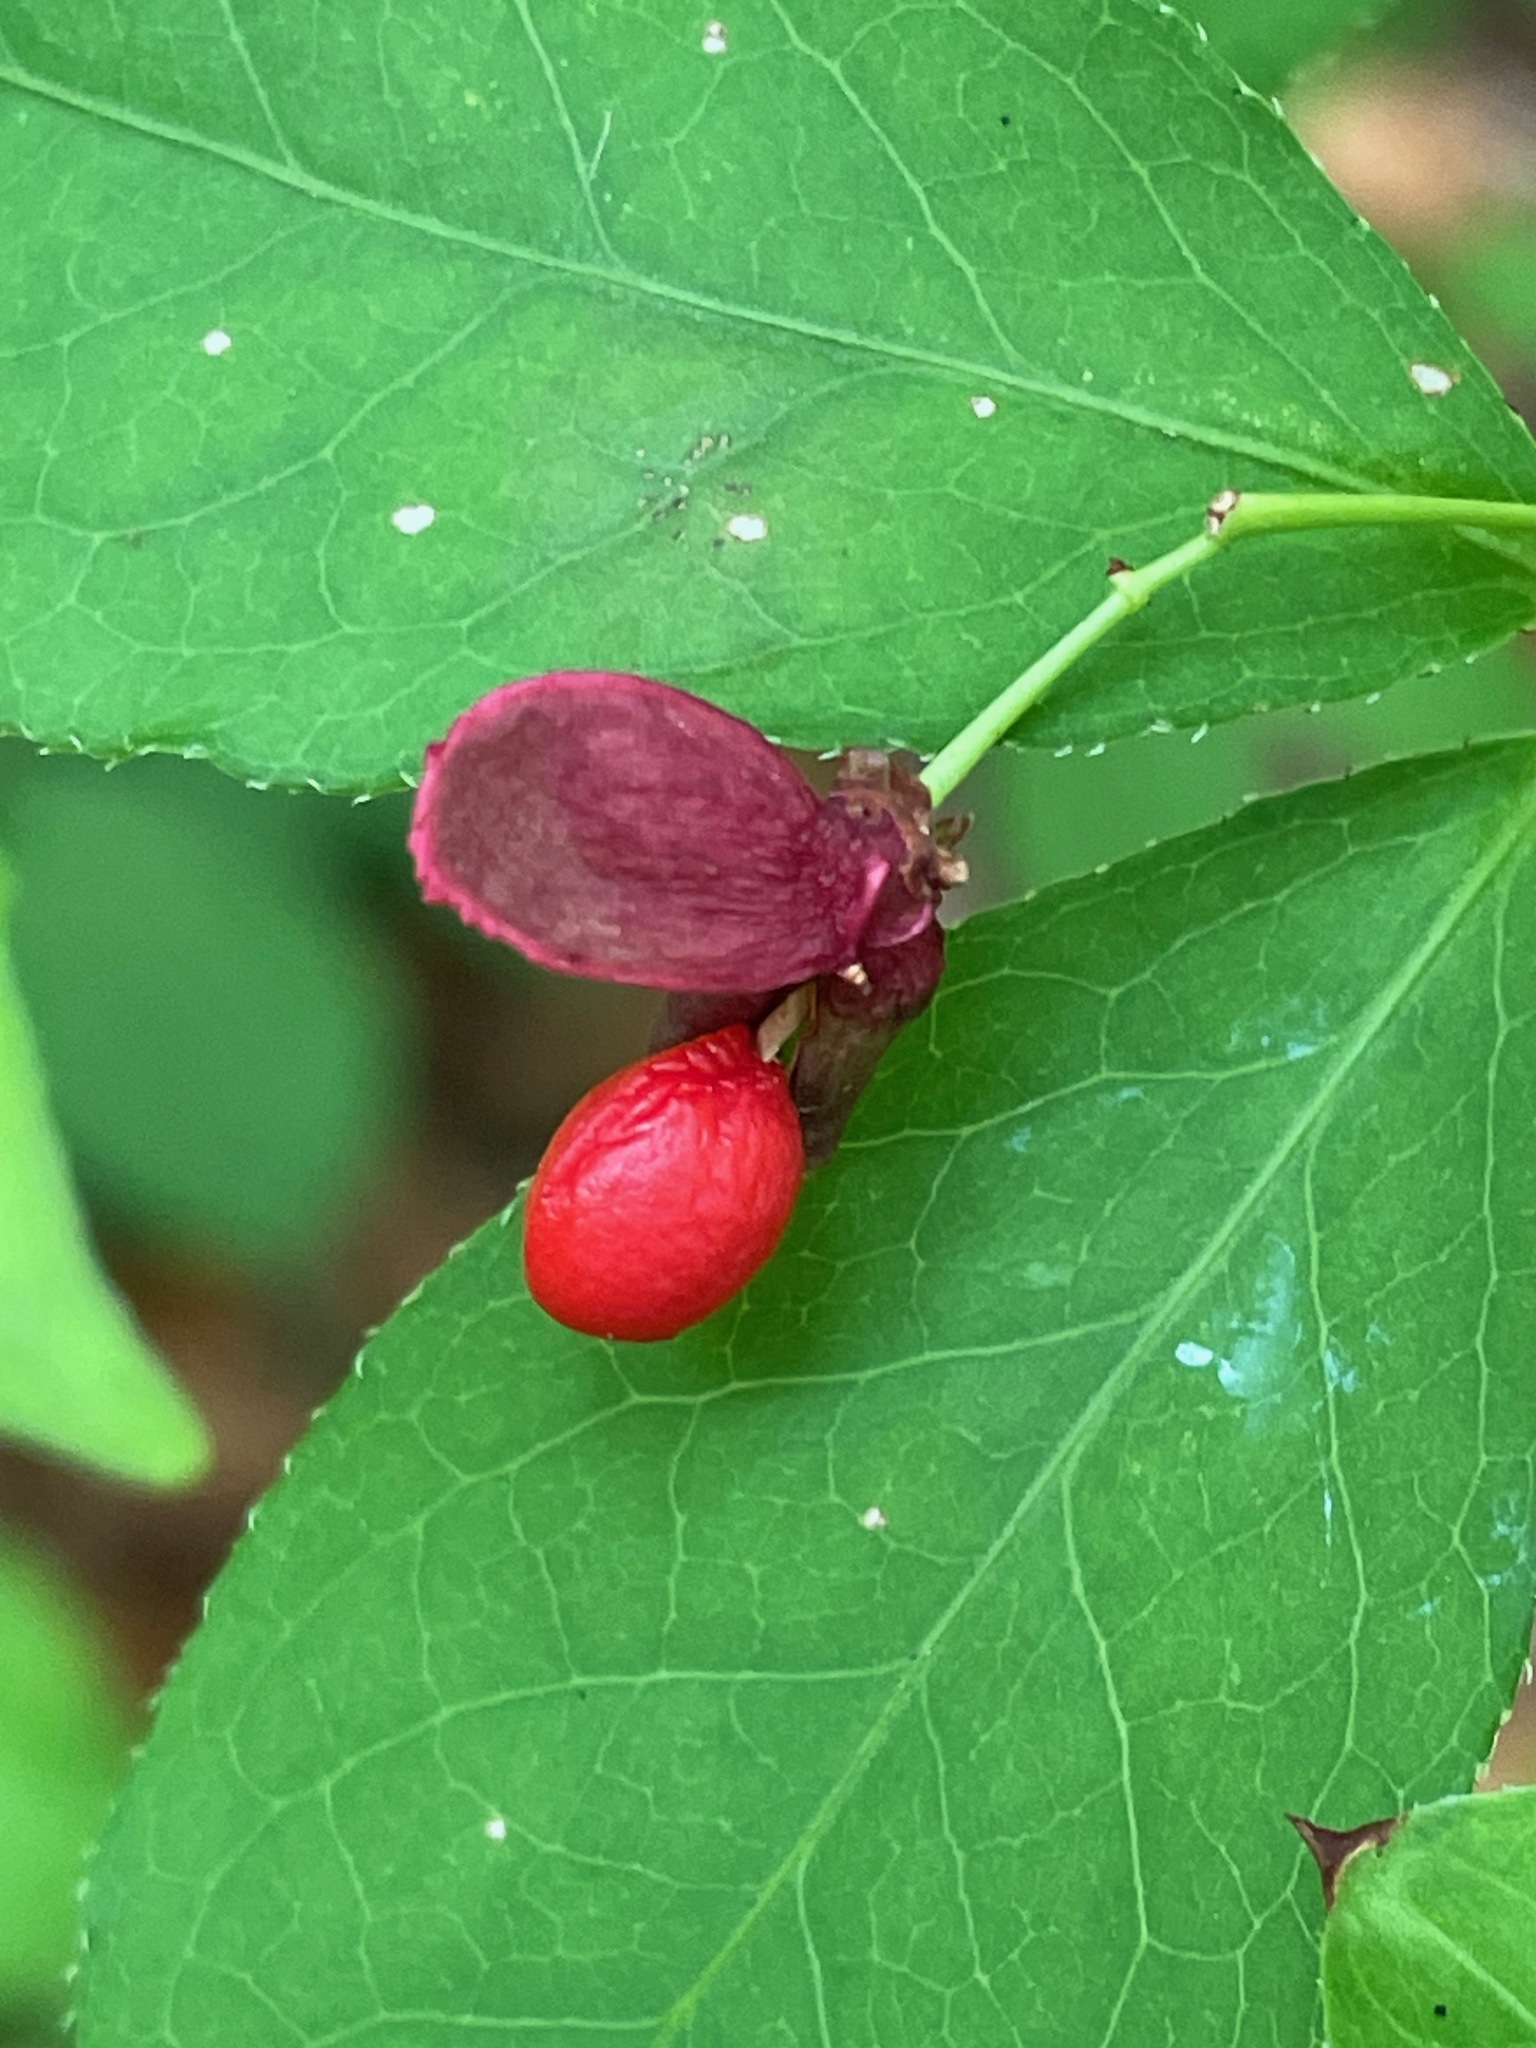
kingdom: Plantae
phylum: Tracheophyta
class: Magnoliopsida
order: Celastrales
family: Celastraceae
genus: Euonymus
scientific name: Euonymus alatus
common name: Winged euonymus
